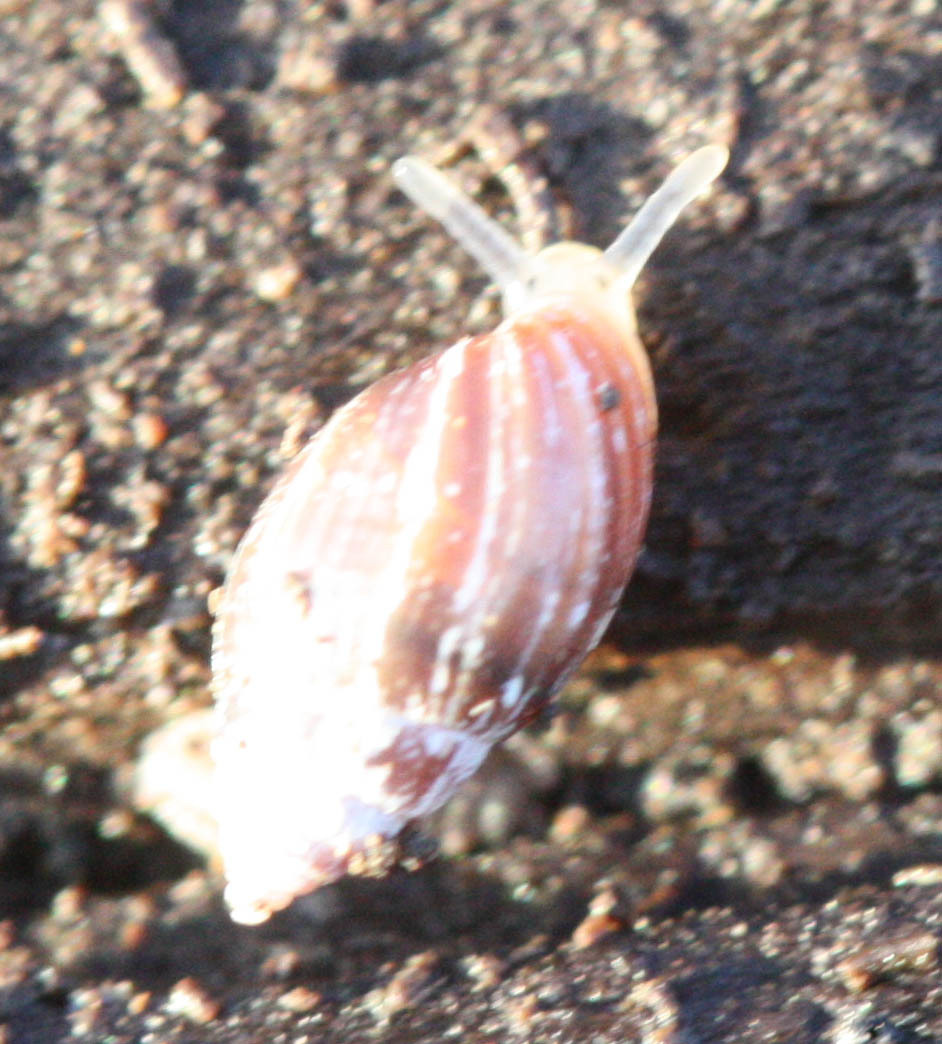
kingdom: Animalia
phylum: Mollusca
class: Gastropoda
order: Ellobiida
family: Ellobiidae
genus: Myosotella
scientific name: Myosotella myosotis
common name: Mouse-eared snail
